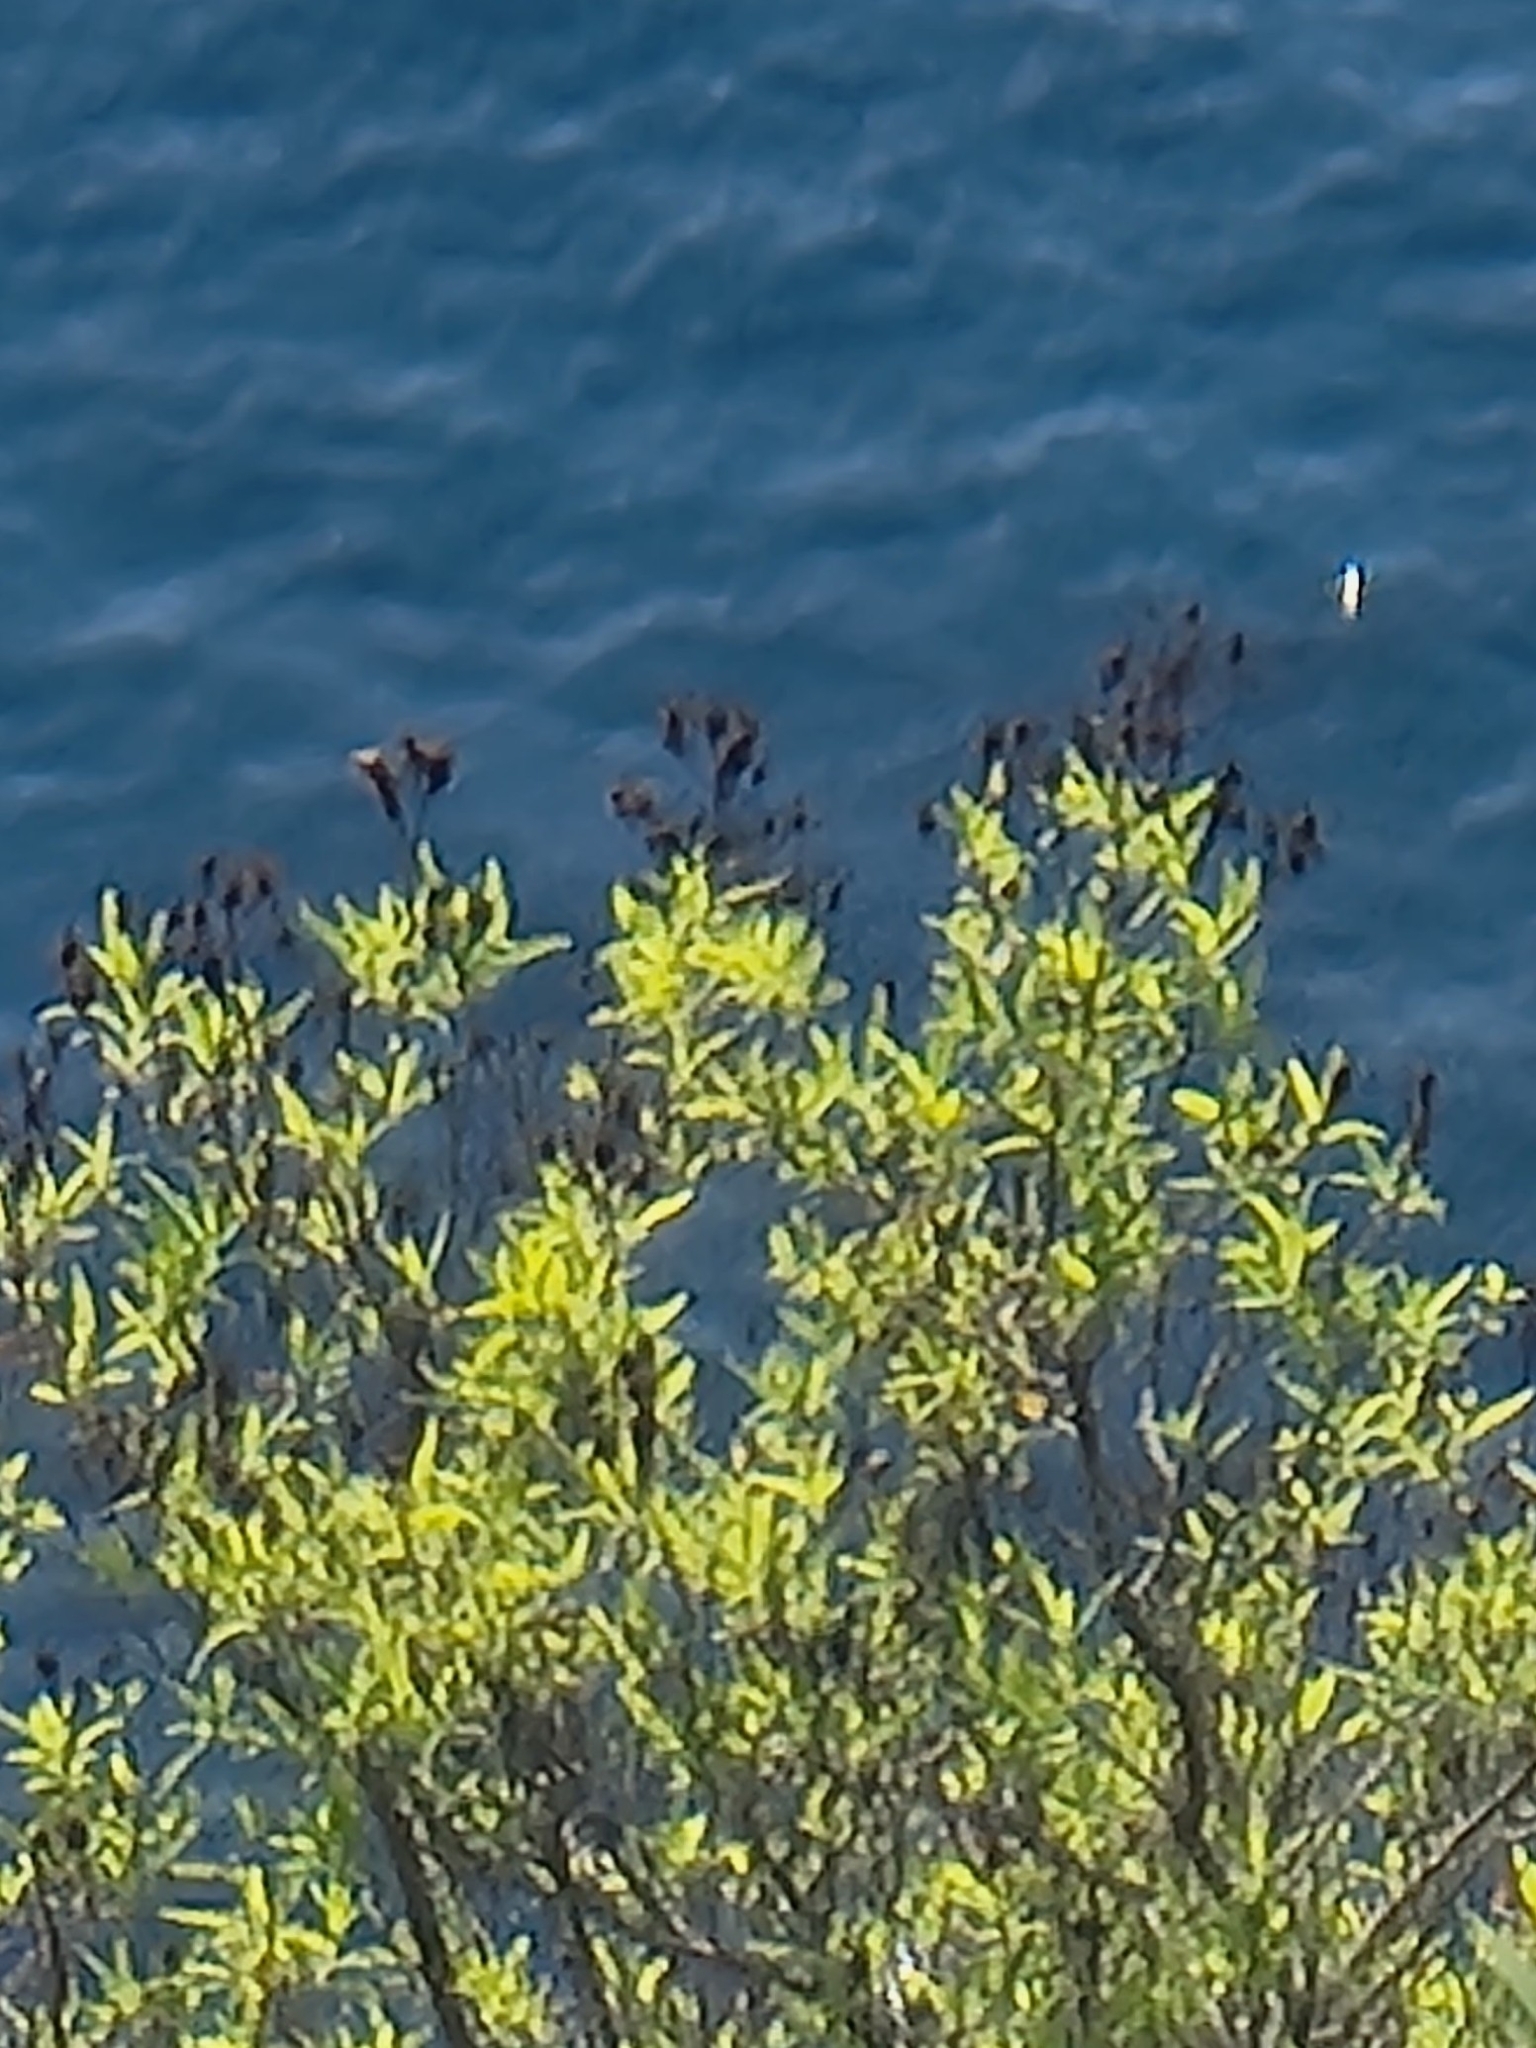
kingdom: Plantae
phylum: Tracheophyta
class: Magnoliopsida
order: Malpighiales
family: Hypericaceae
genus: Hypericum
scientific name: Hypericum canariense
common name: Canary island st. johnswort
